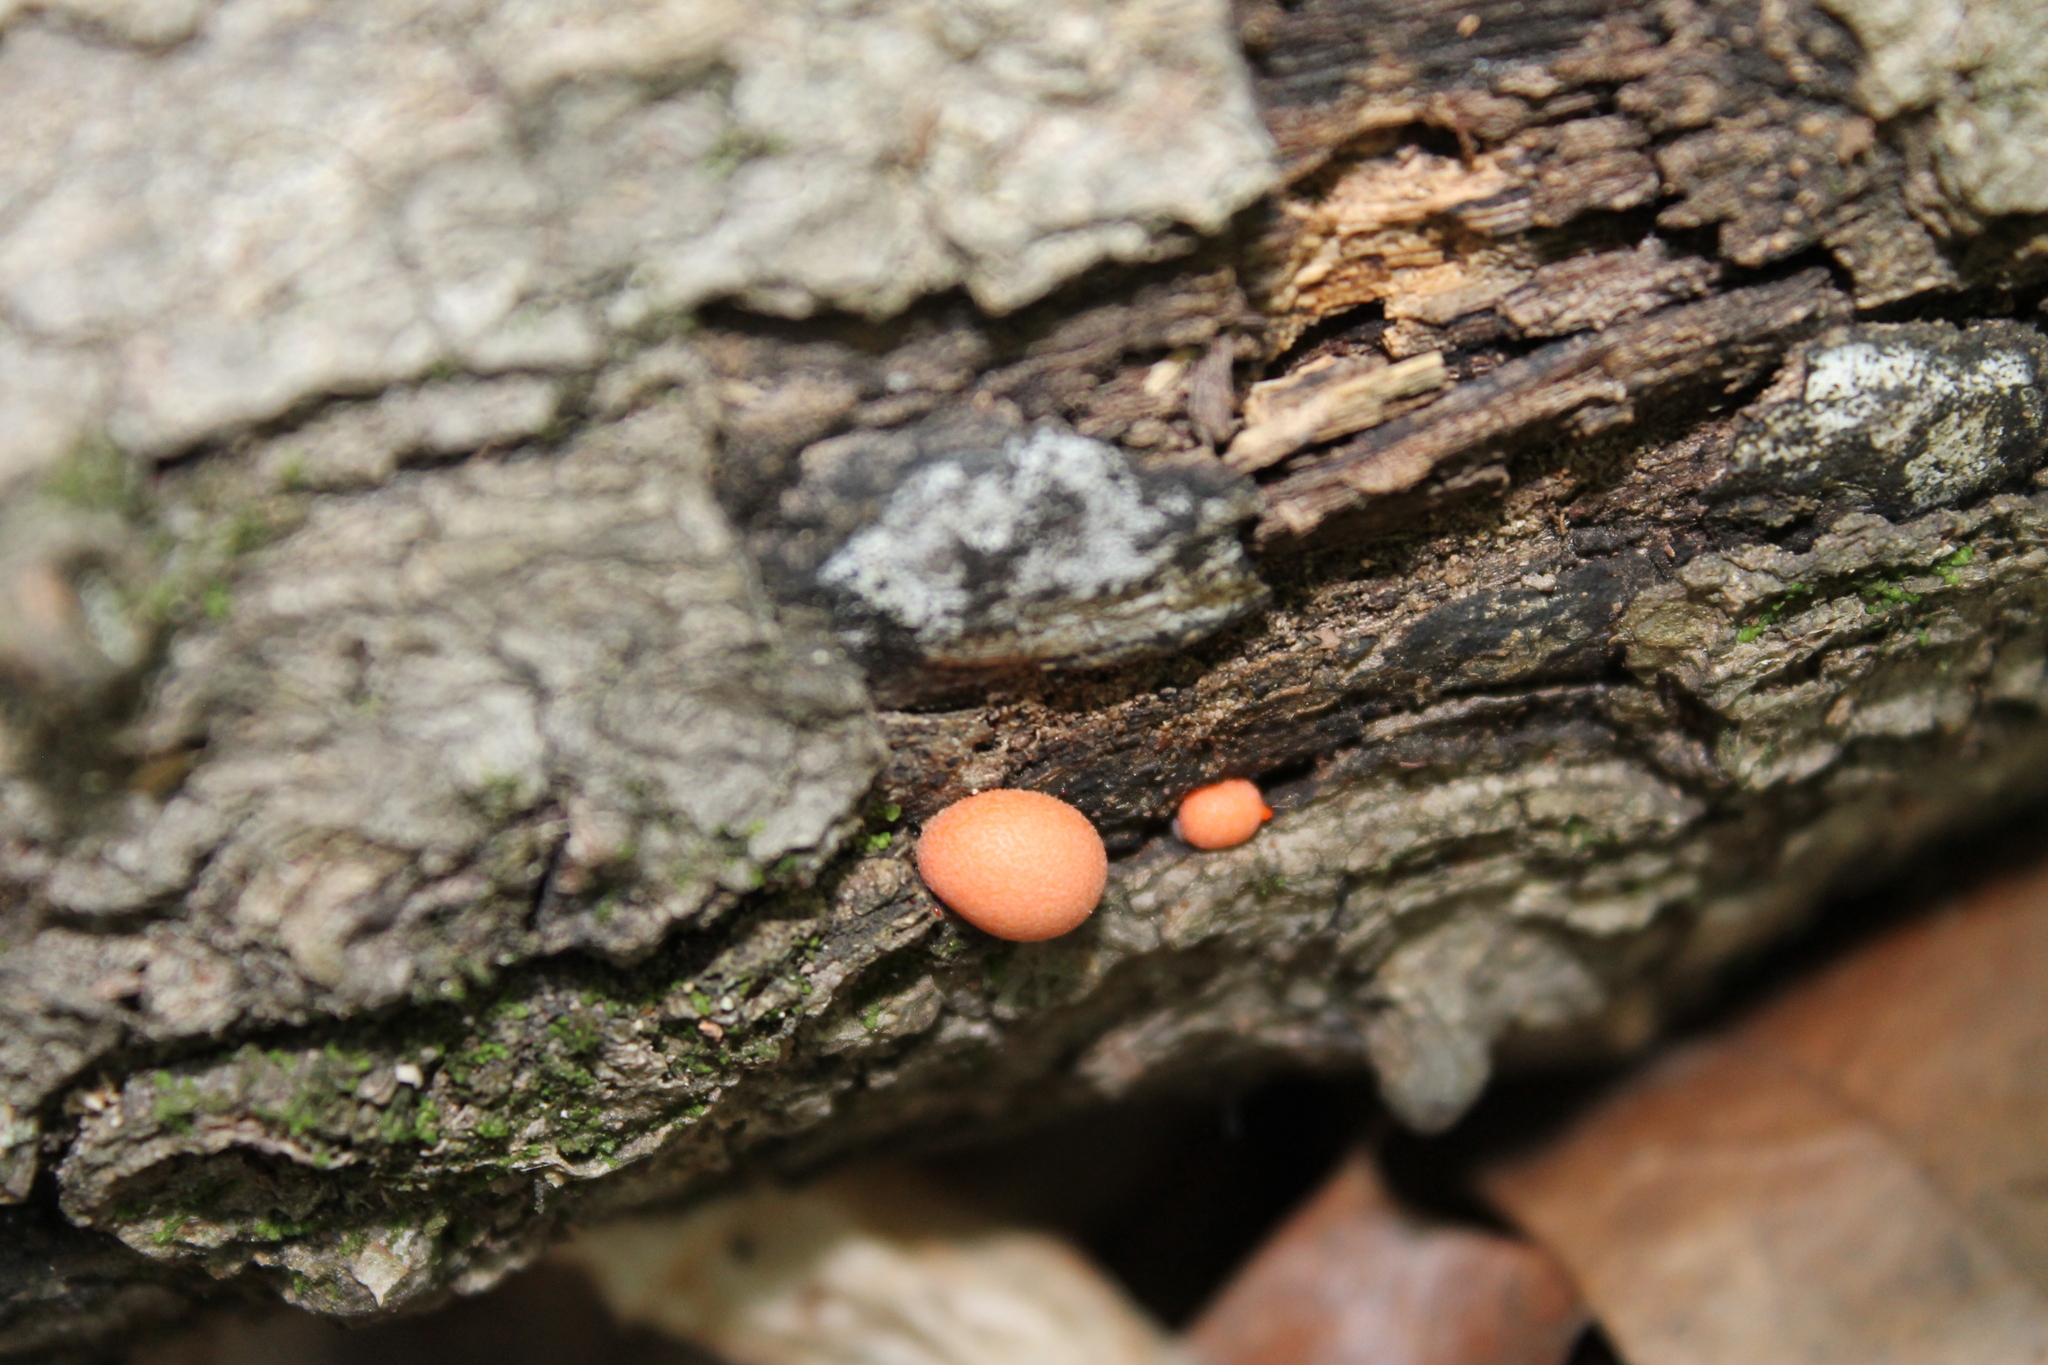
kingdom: Protozoa
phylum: Mycetozoa
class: Myxomycetes
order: Cribrariales
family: Tubiferaceae
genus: Lycogala
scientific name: Lycogala epidendrum
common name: Wolf's milk
